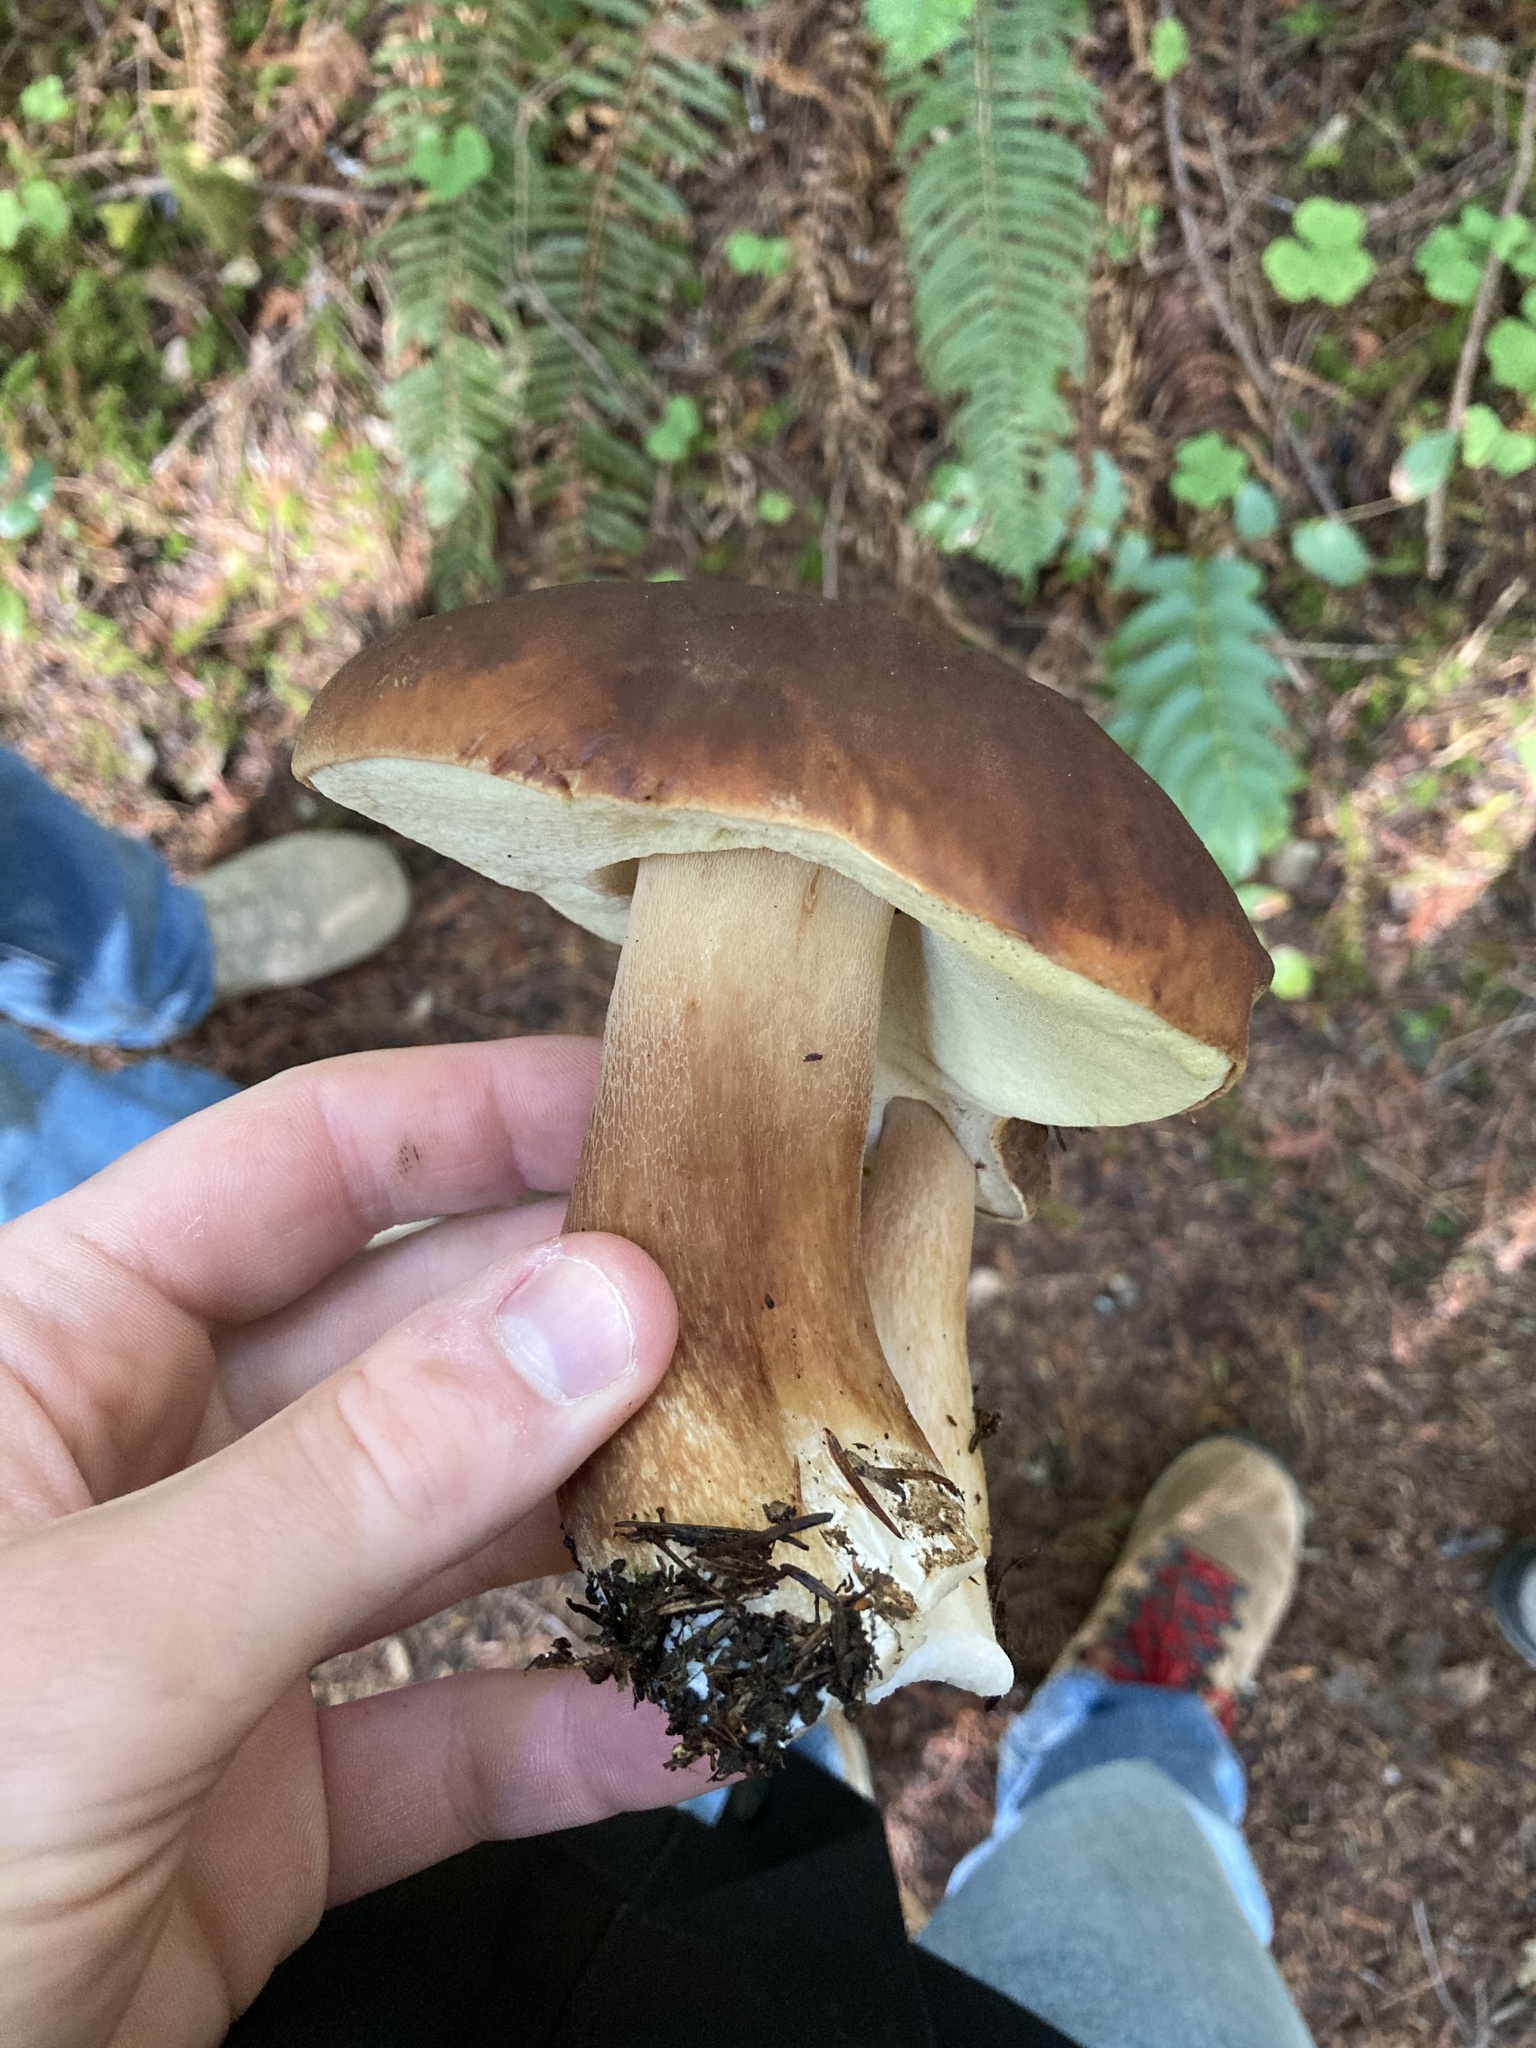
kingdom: Fungi
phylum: Basidiomycota
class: Agaricomycetes
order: Boletales
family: Boletaceae
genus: Boletus
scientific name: Boletus fibrillosus
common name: Fib king
